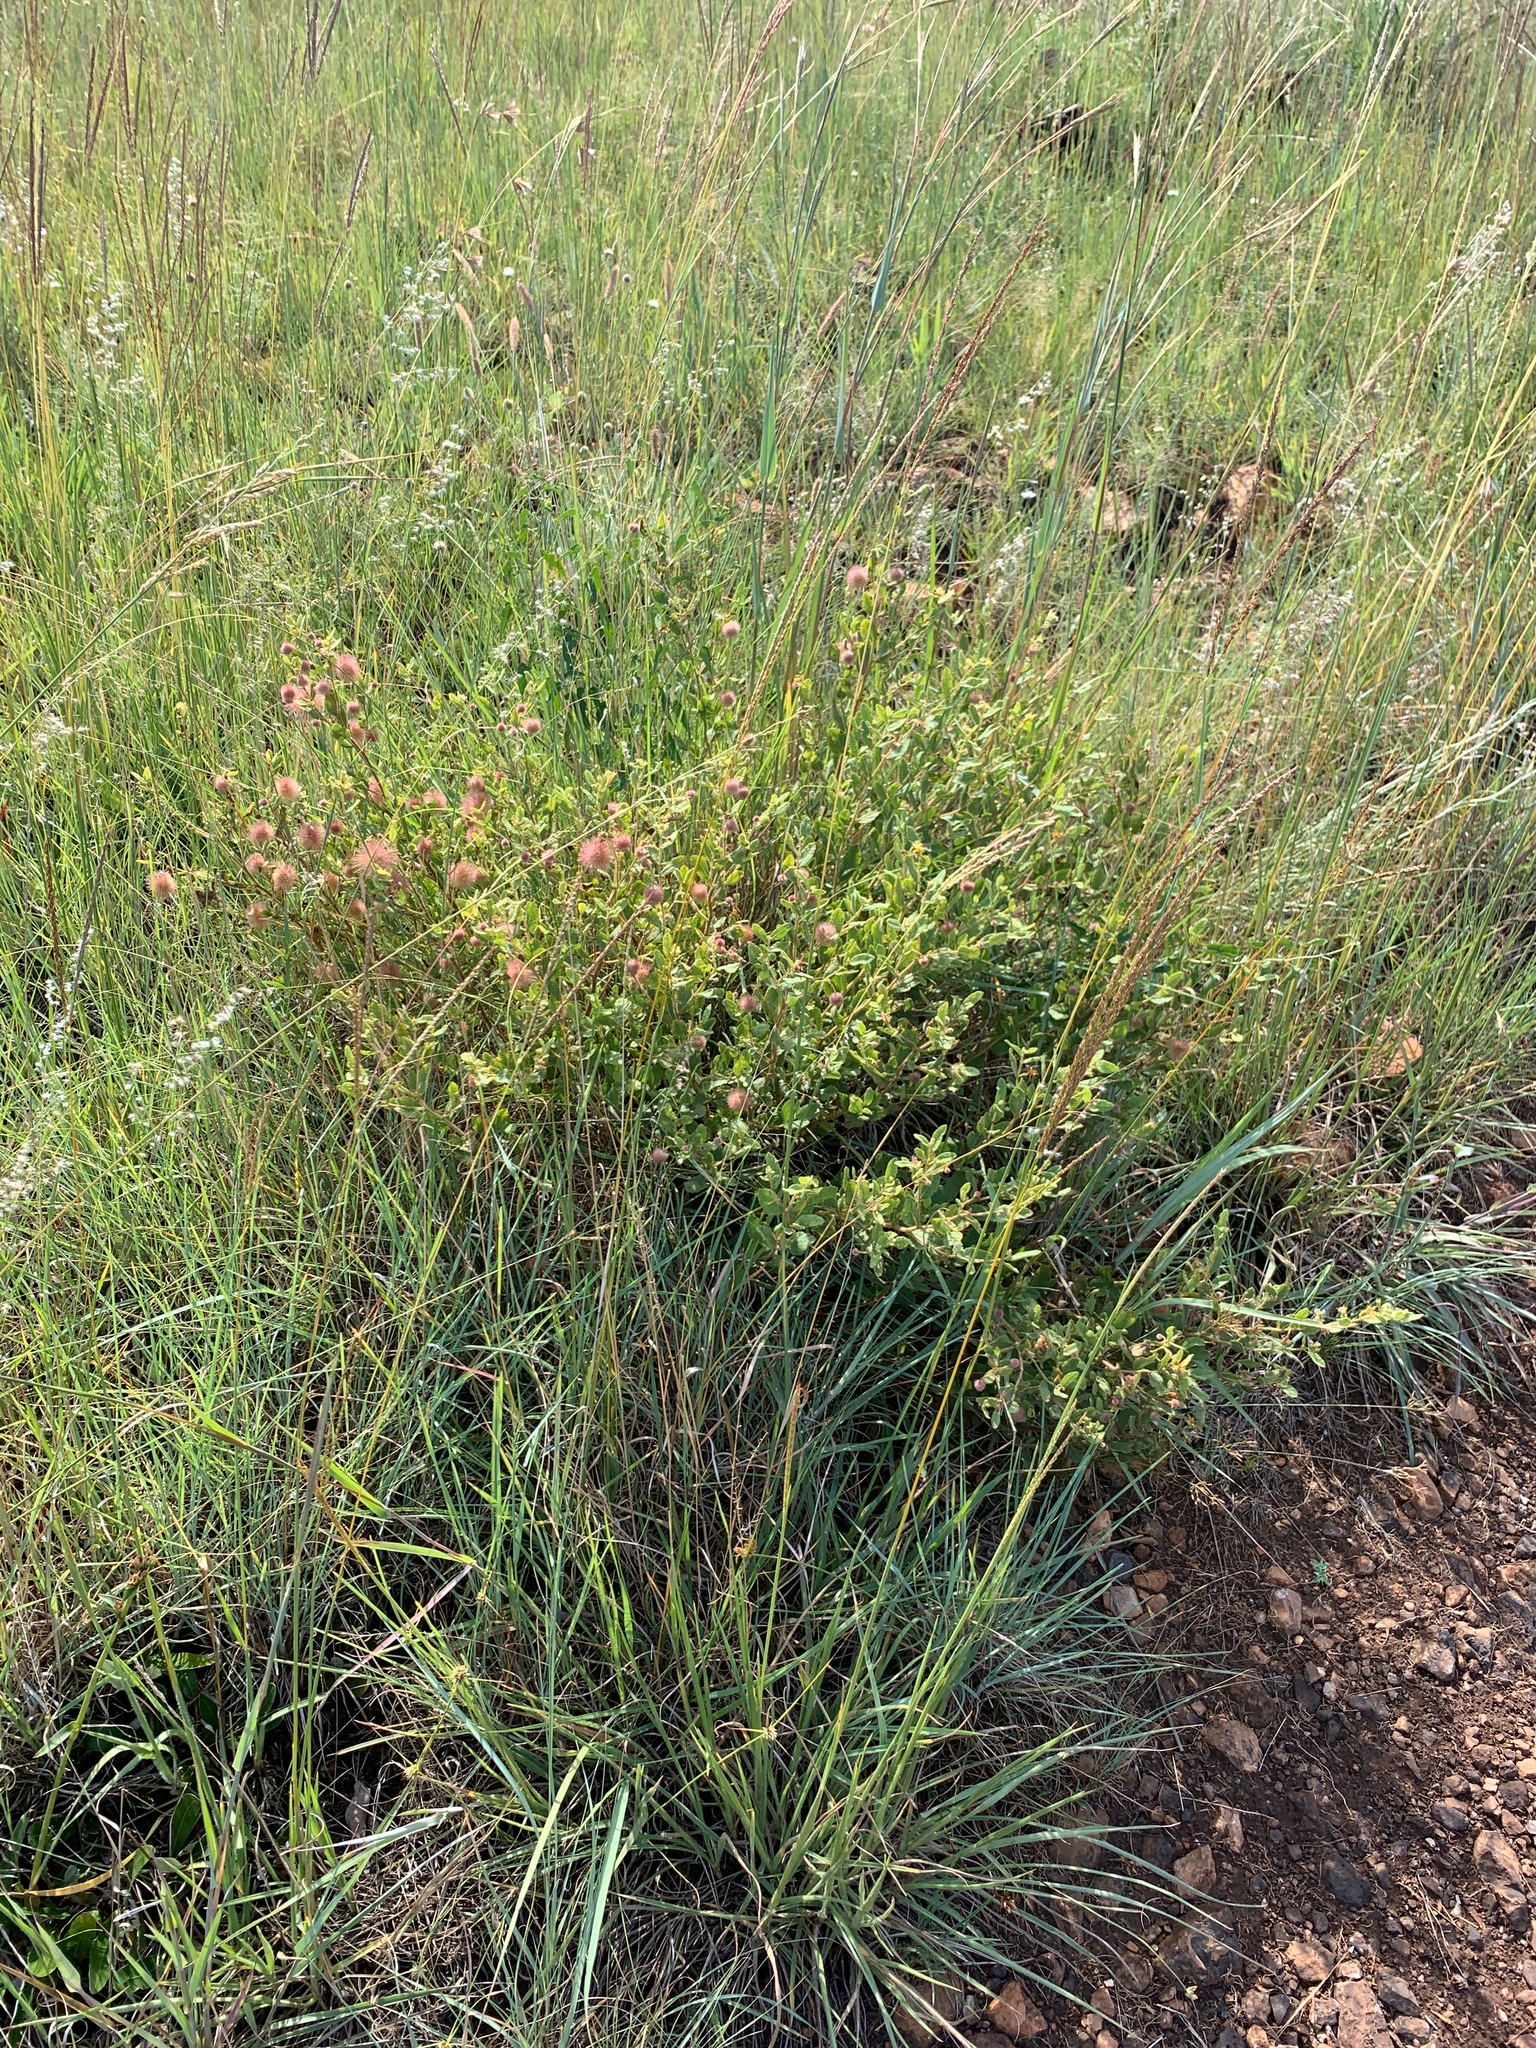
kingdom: Plantae
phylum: Tracheophyta
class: Magnoliopsida
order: Malvales
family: Malvaceae
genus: Triumfetta
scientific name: Triumfetta sonderi
